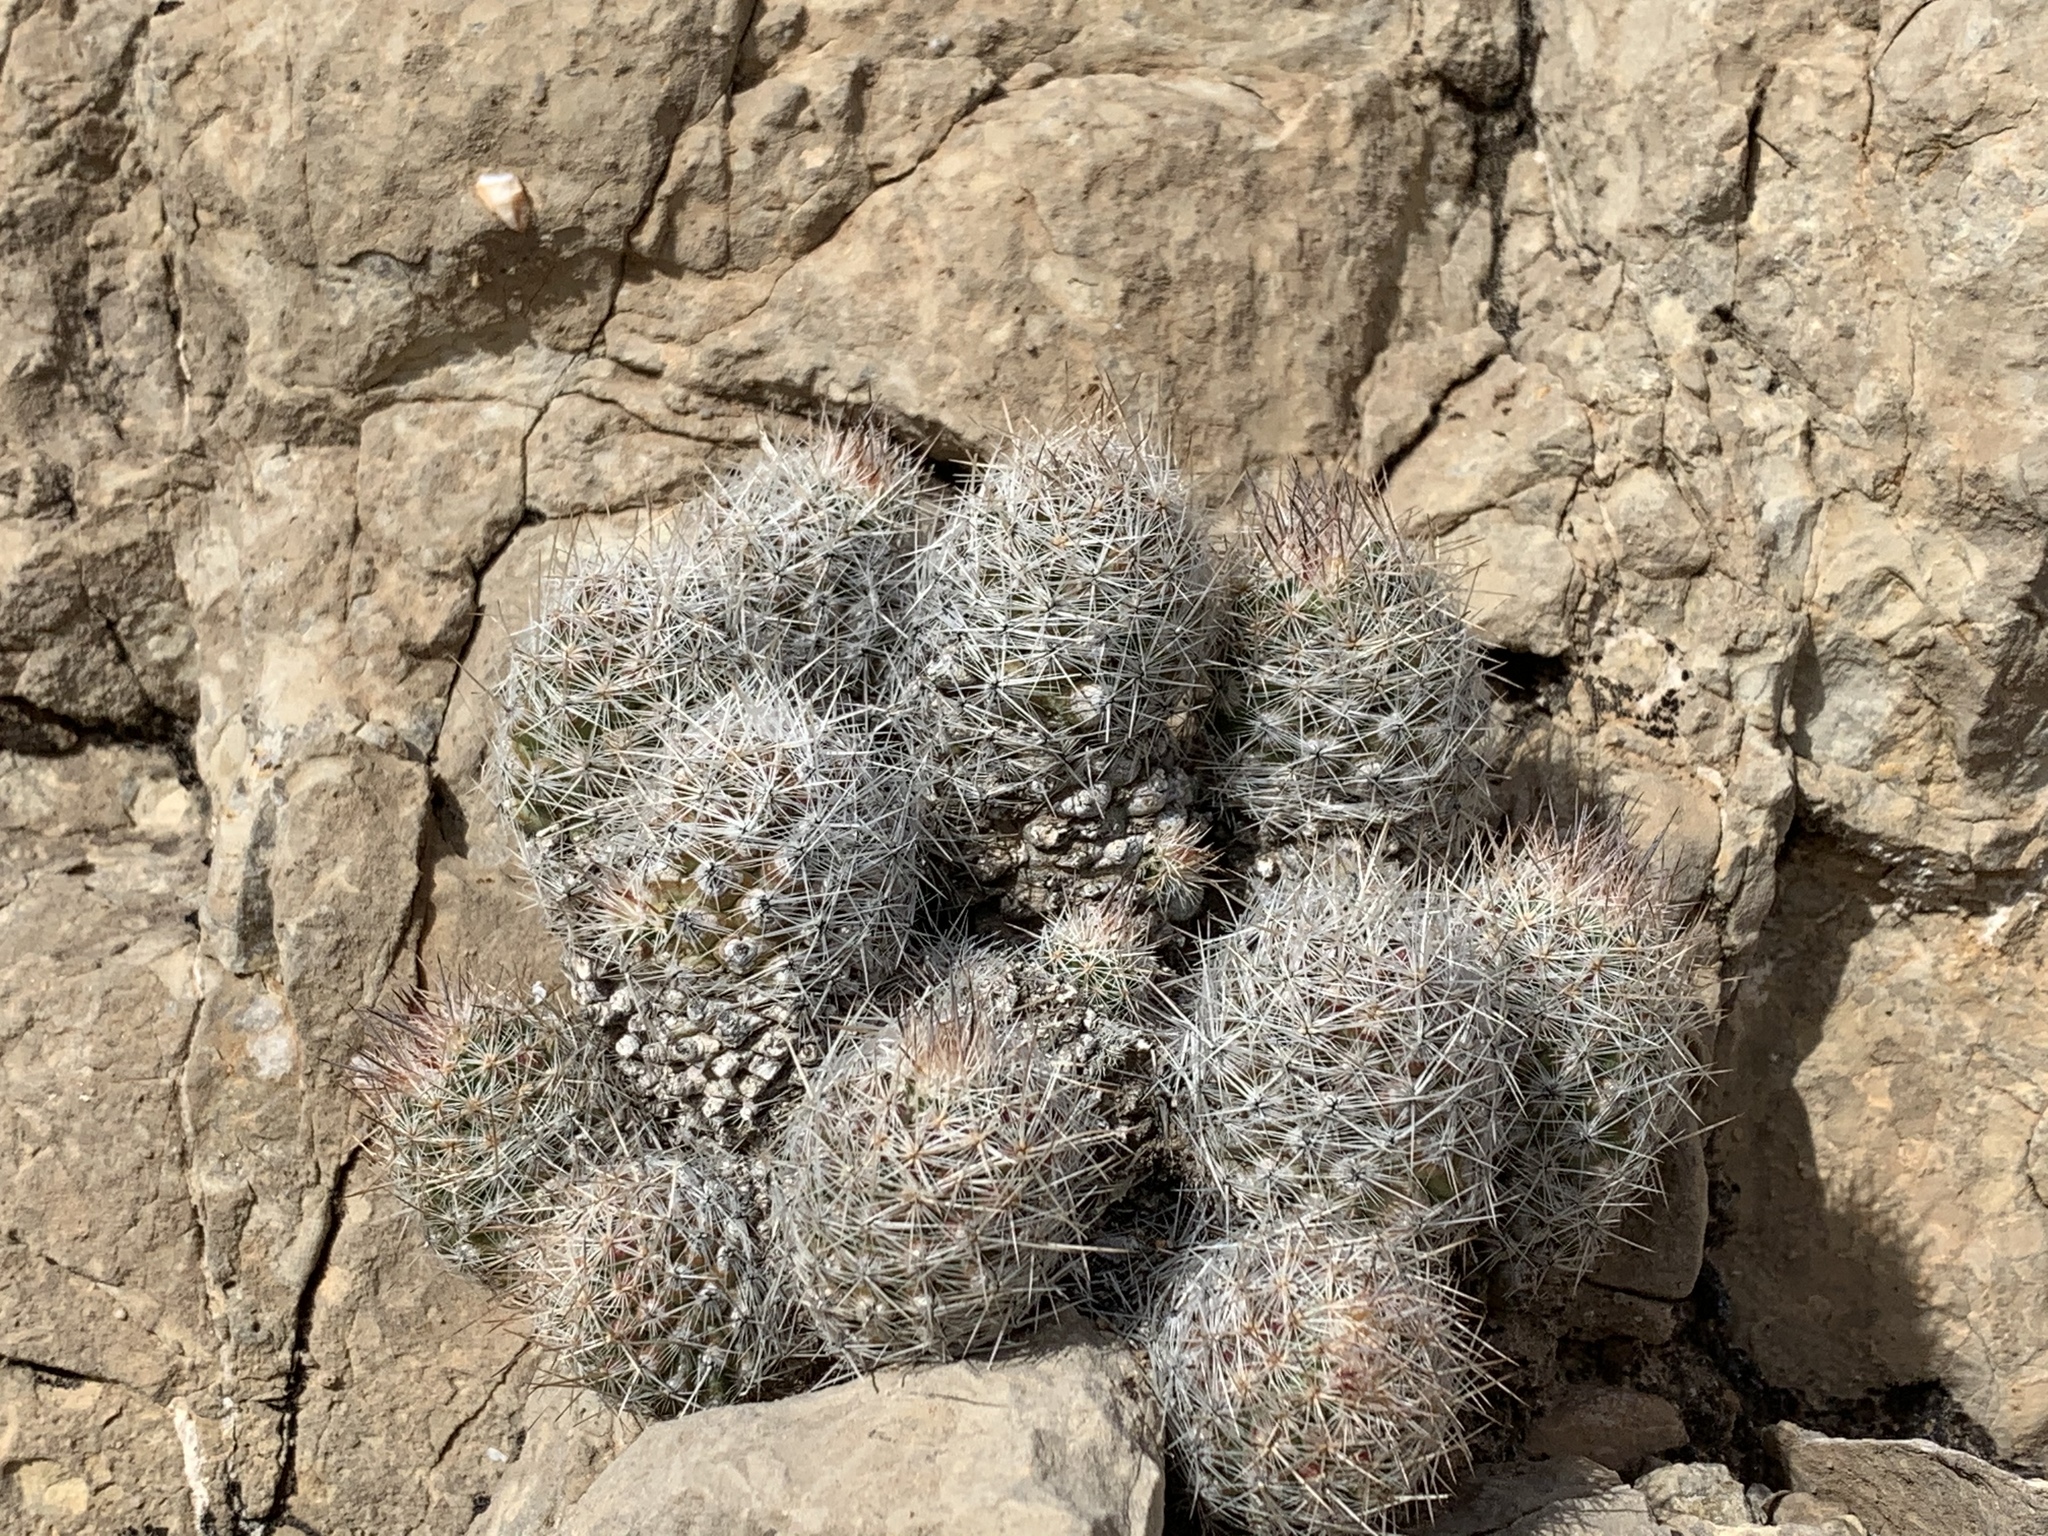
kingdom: Plantae
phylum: Tracheophyta
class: Magnoliopsida
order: Caryophyllales
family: Cactaceae
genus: Pelecyphora
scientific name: Pelecyphora tuberculosa
